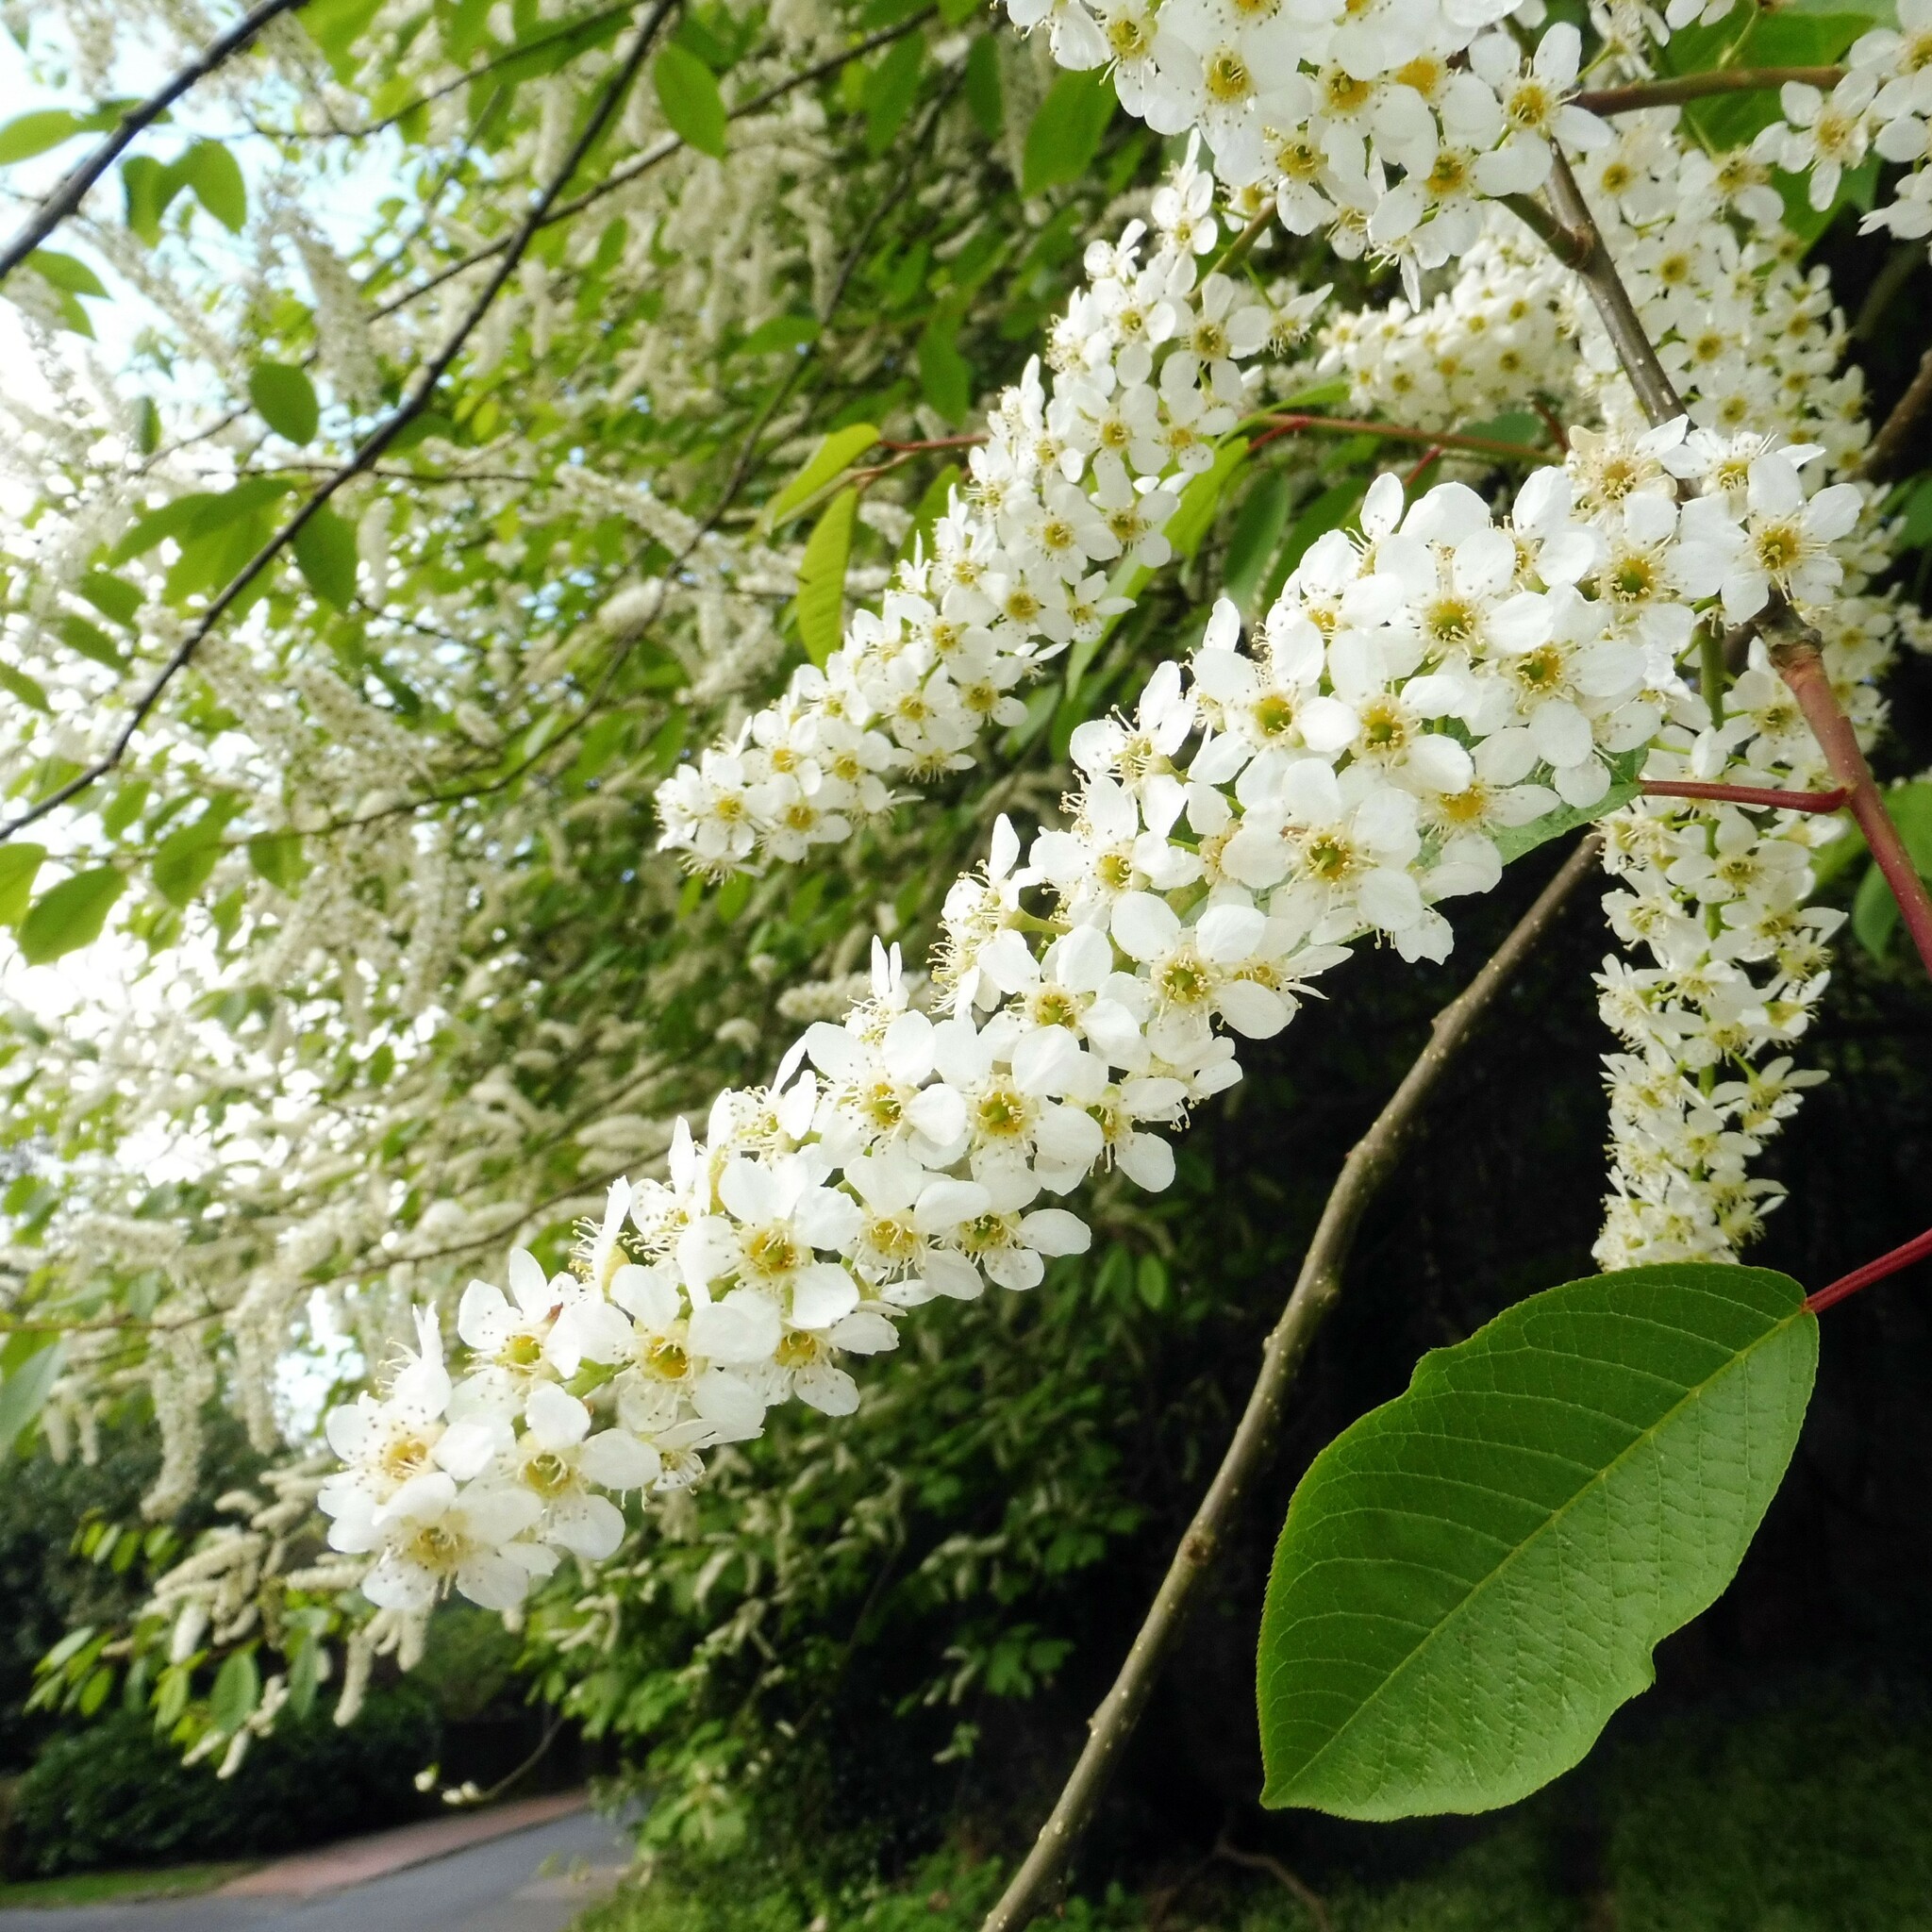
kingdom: Plantae
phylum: Tracheophyta
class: Magnoliopsida
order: Rosales
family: Rosaceae
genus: Prunus
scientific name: Prunus padus
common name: Bird cherry
